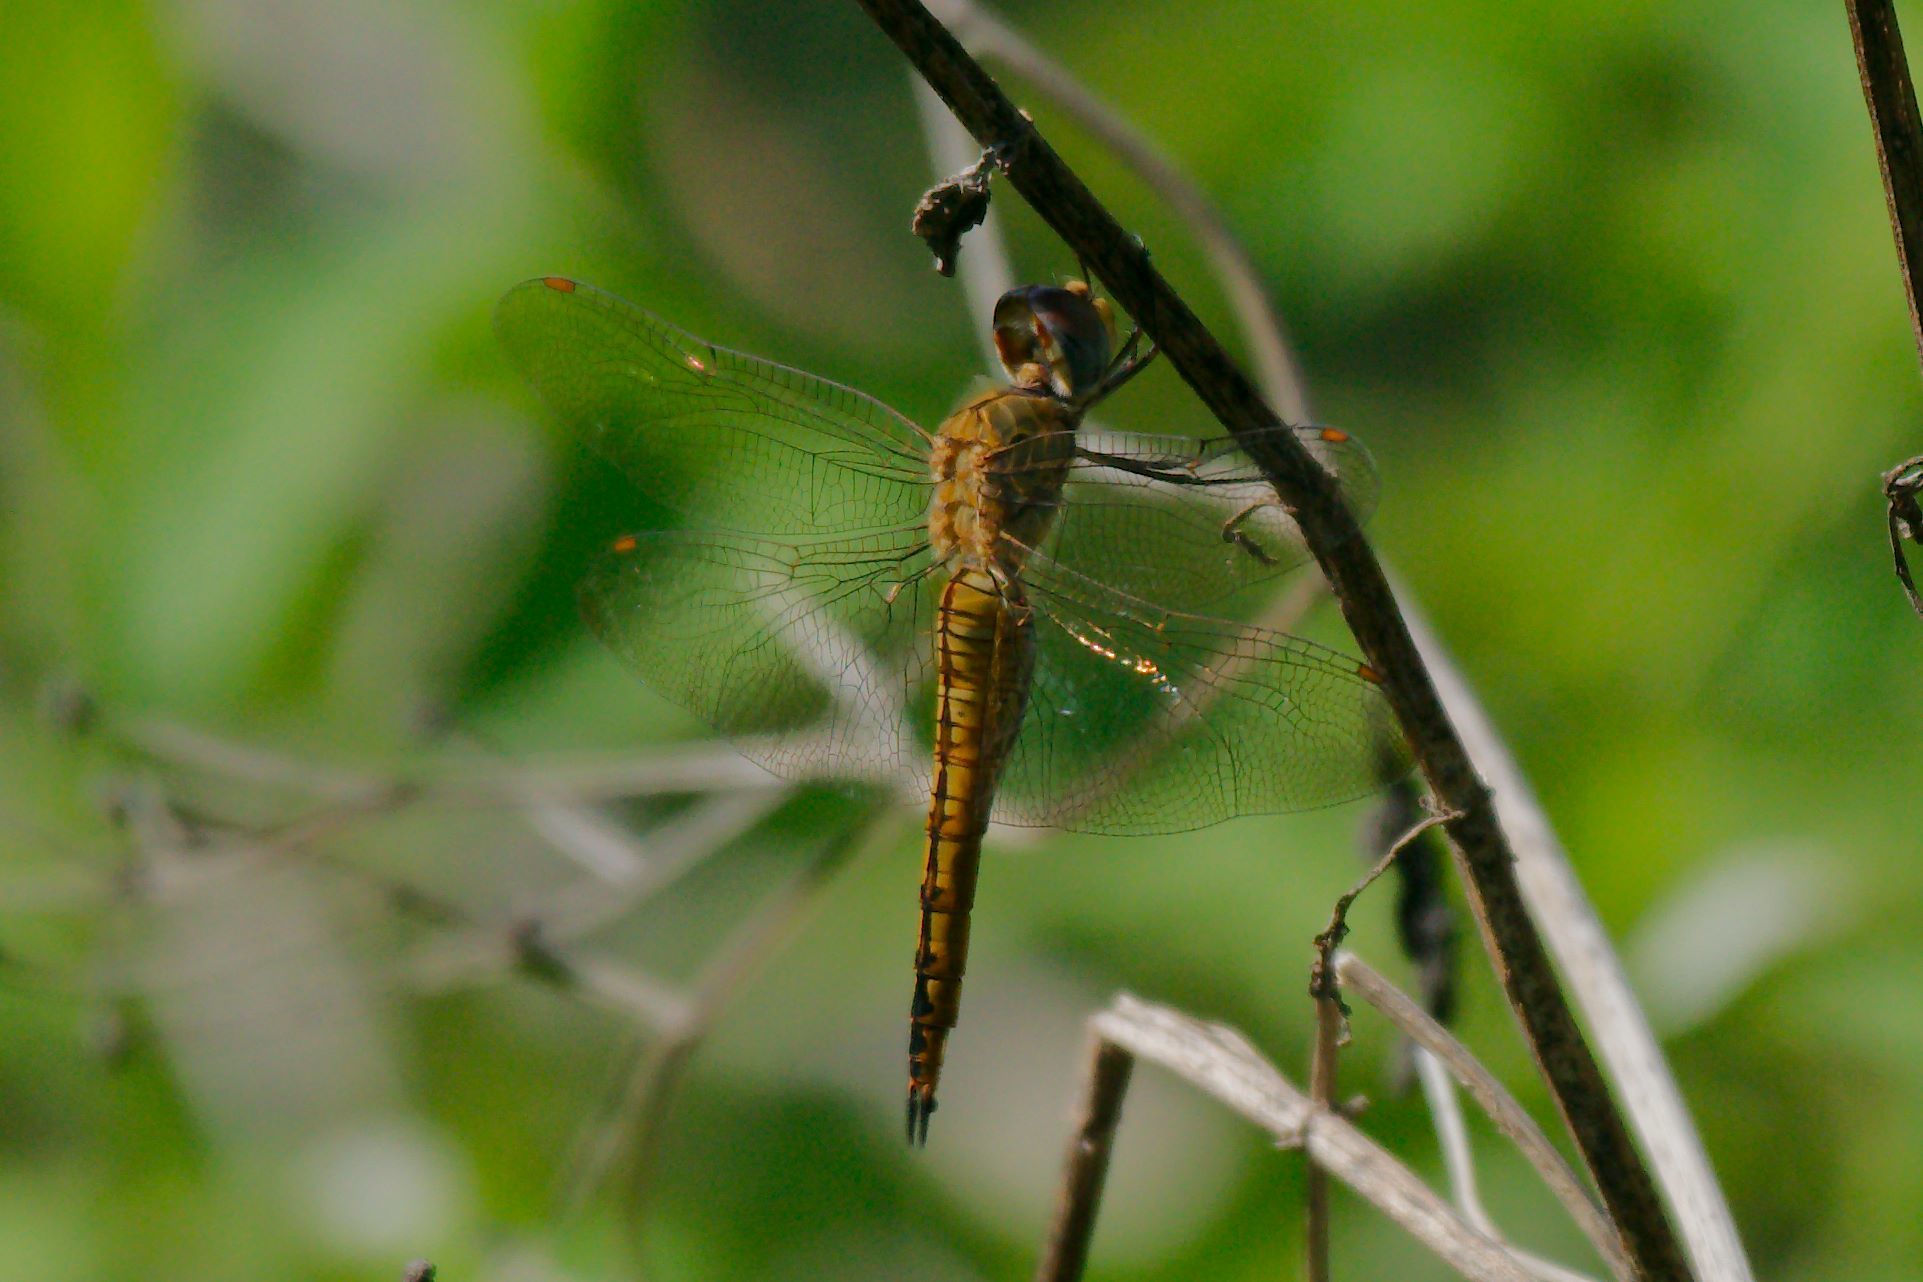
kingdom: Animalia
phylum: Arthropoda
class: Insecta
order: Odonata
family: Libellulidae
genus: Pantala
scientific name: Pantala flavescens
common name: Wandering glider
